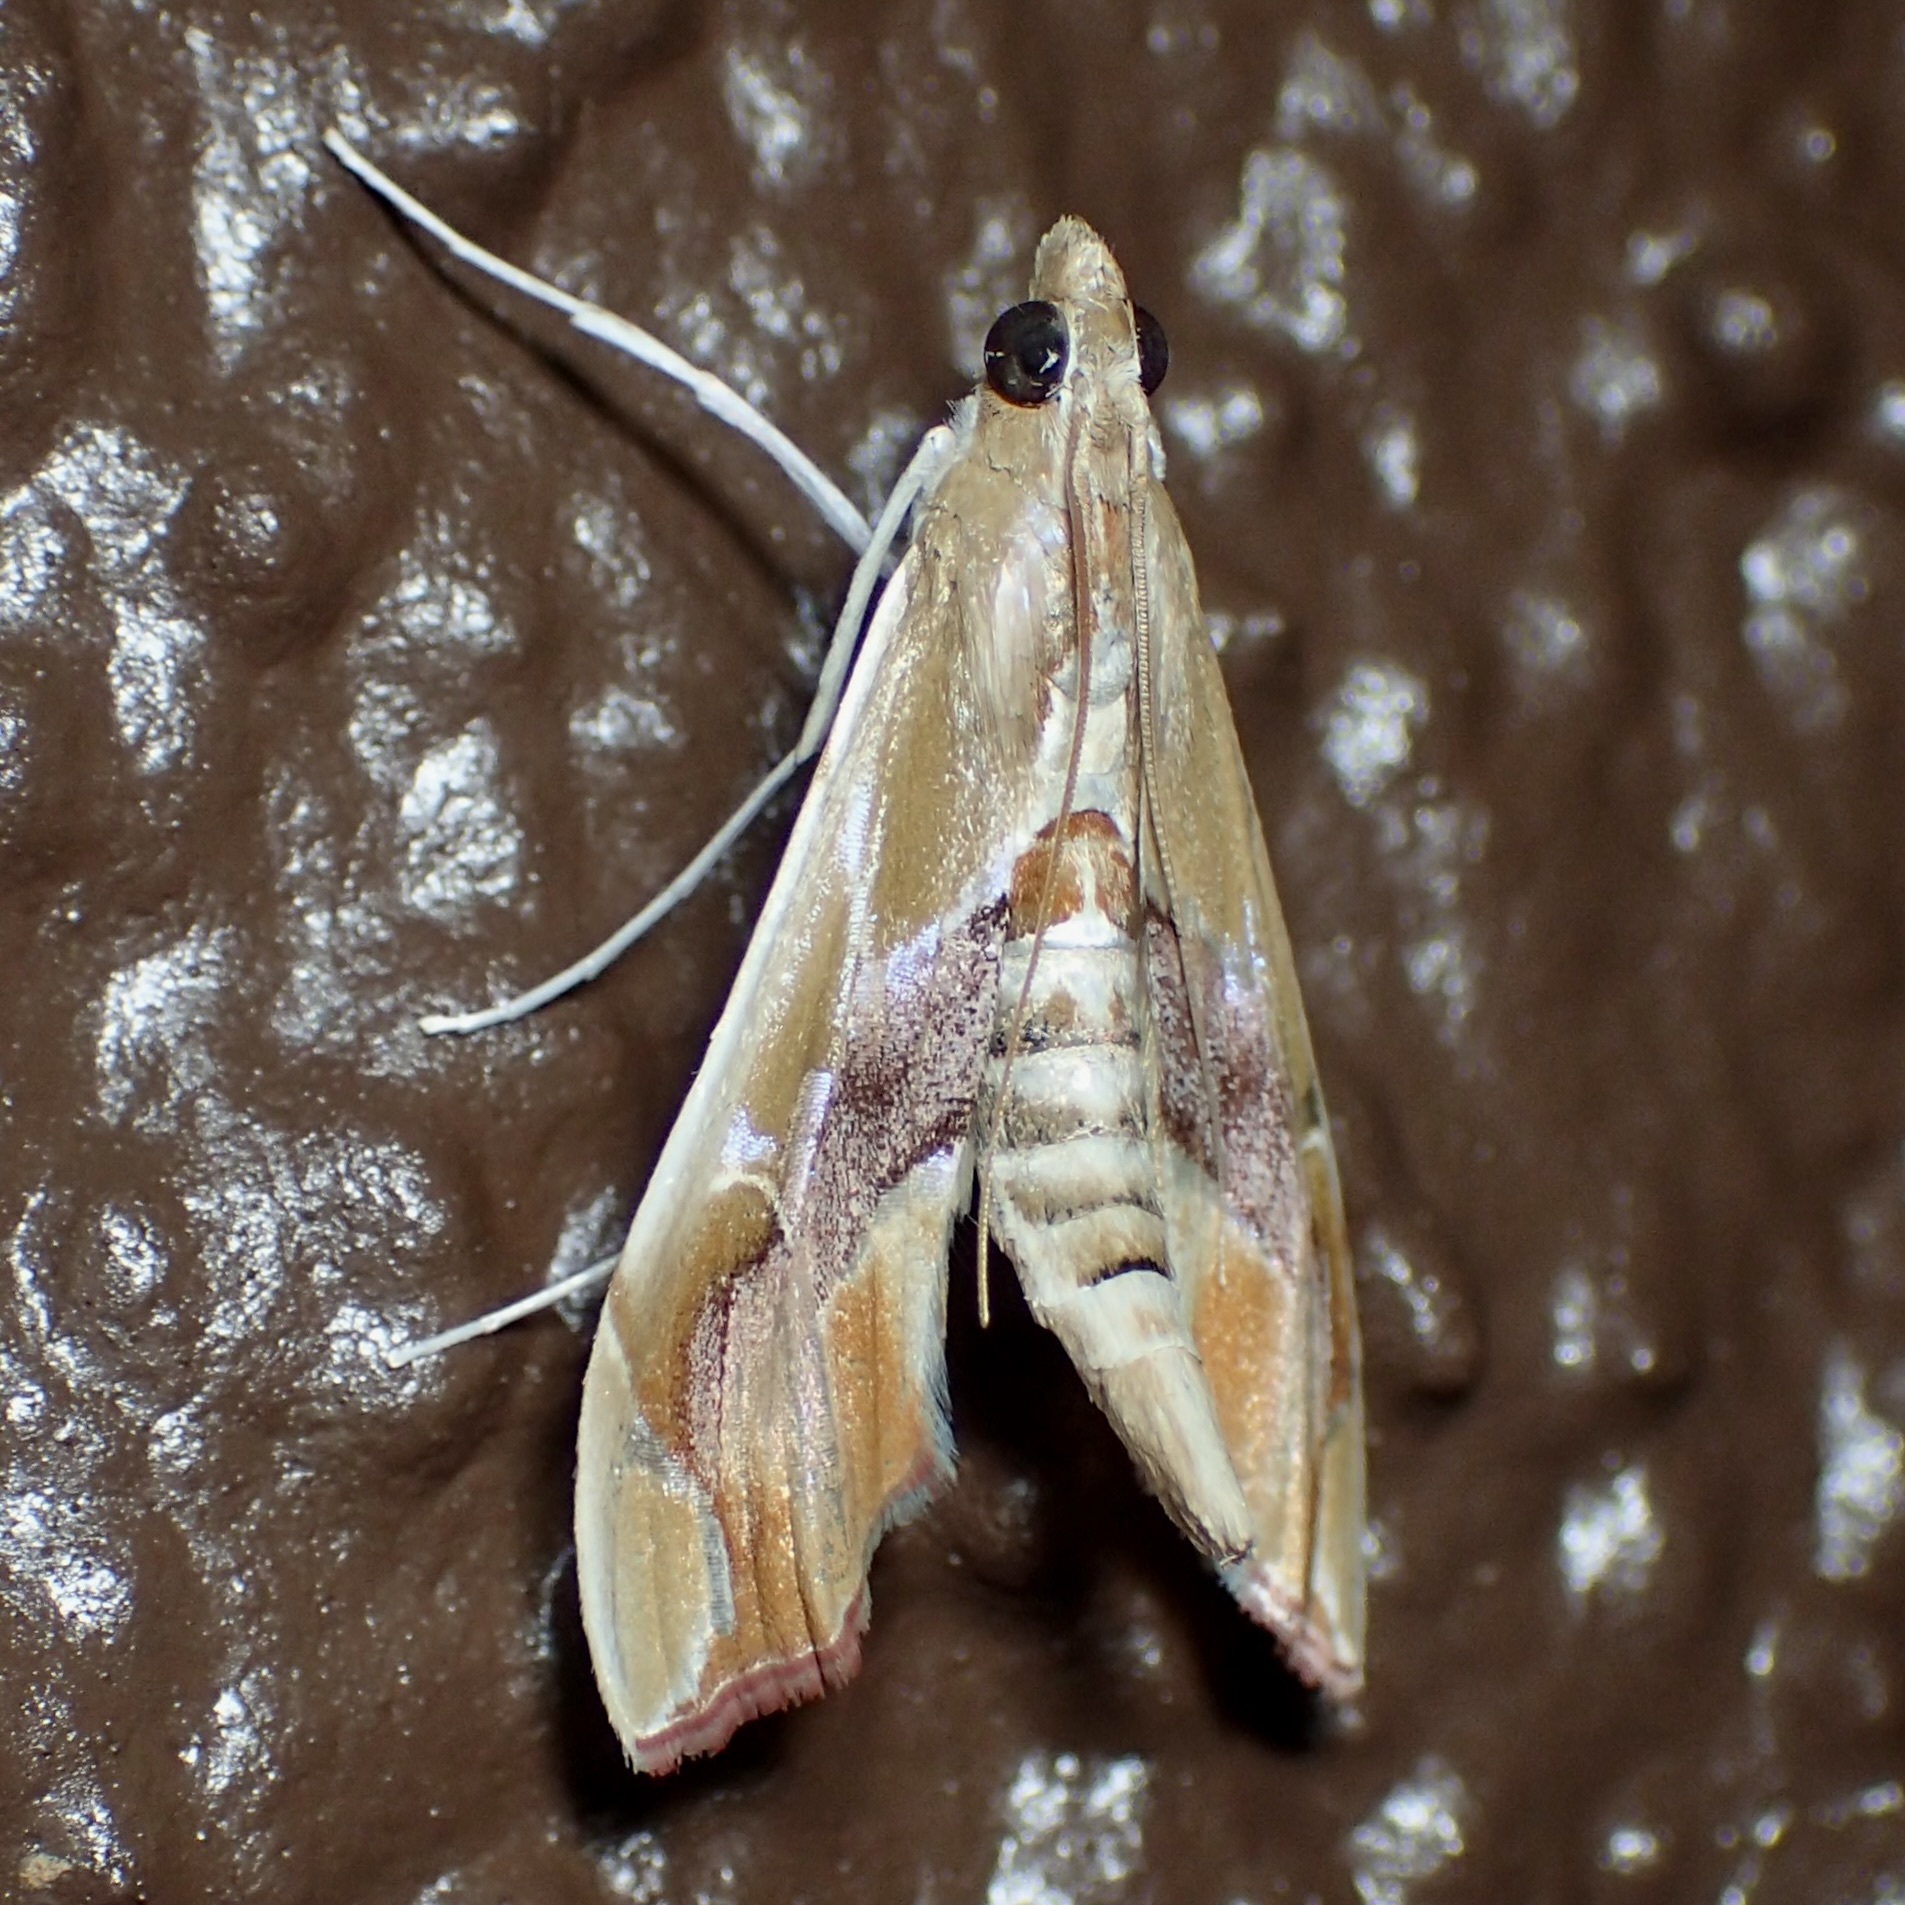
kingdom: Animalia
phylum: Arthropoda
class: Insecta
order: Lepidoptera
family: Crambidae
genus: Agathodes
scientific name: Agathodes monstralis
